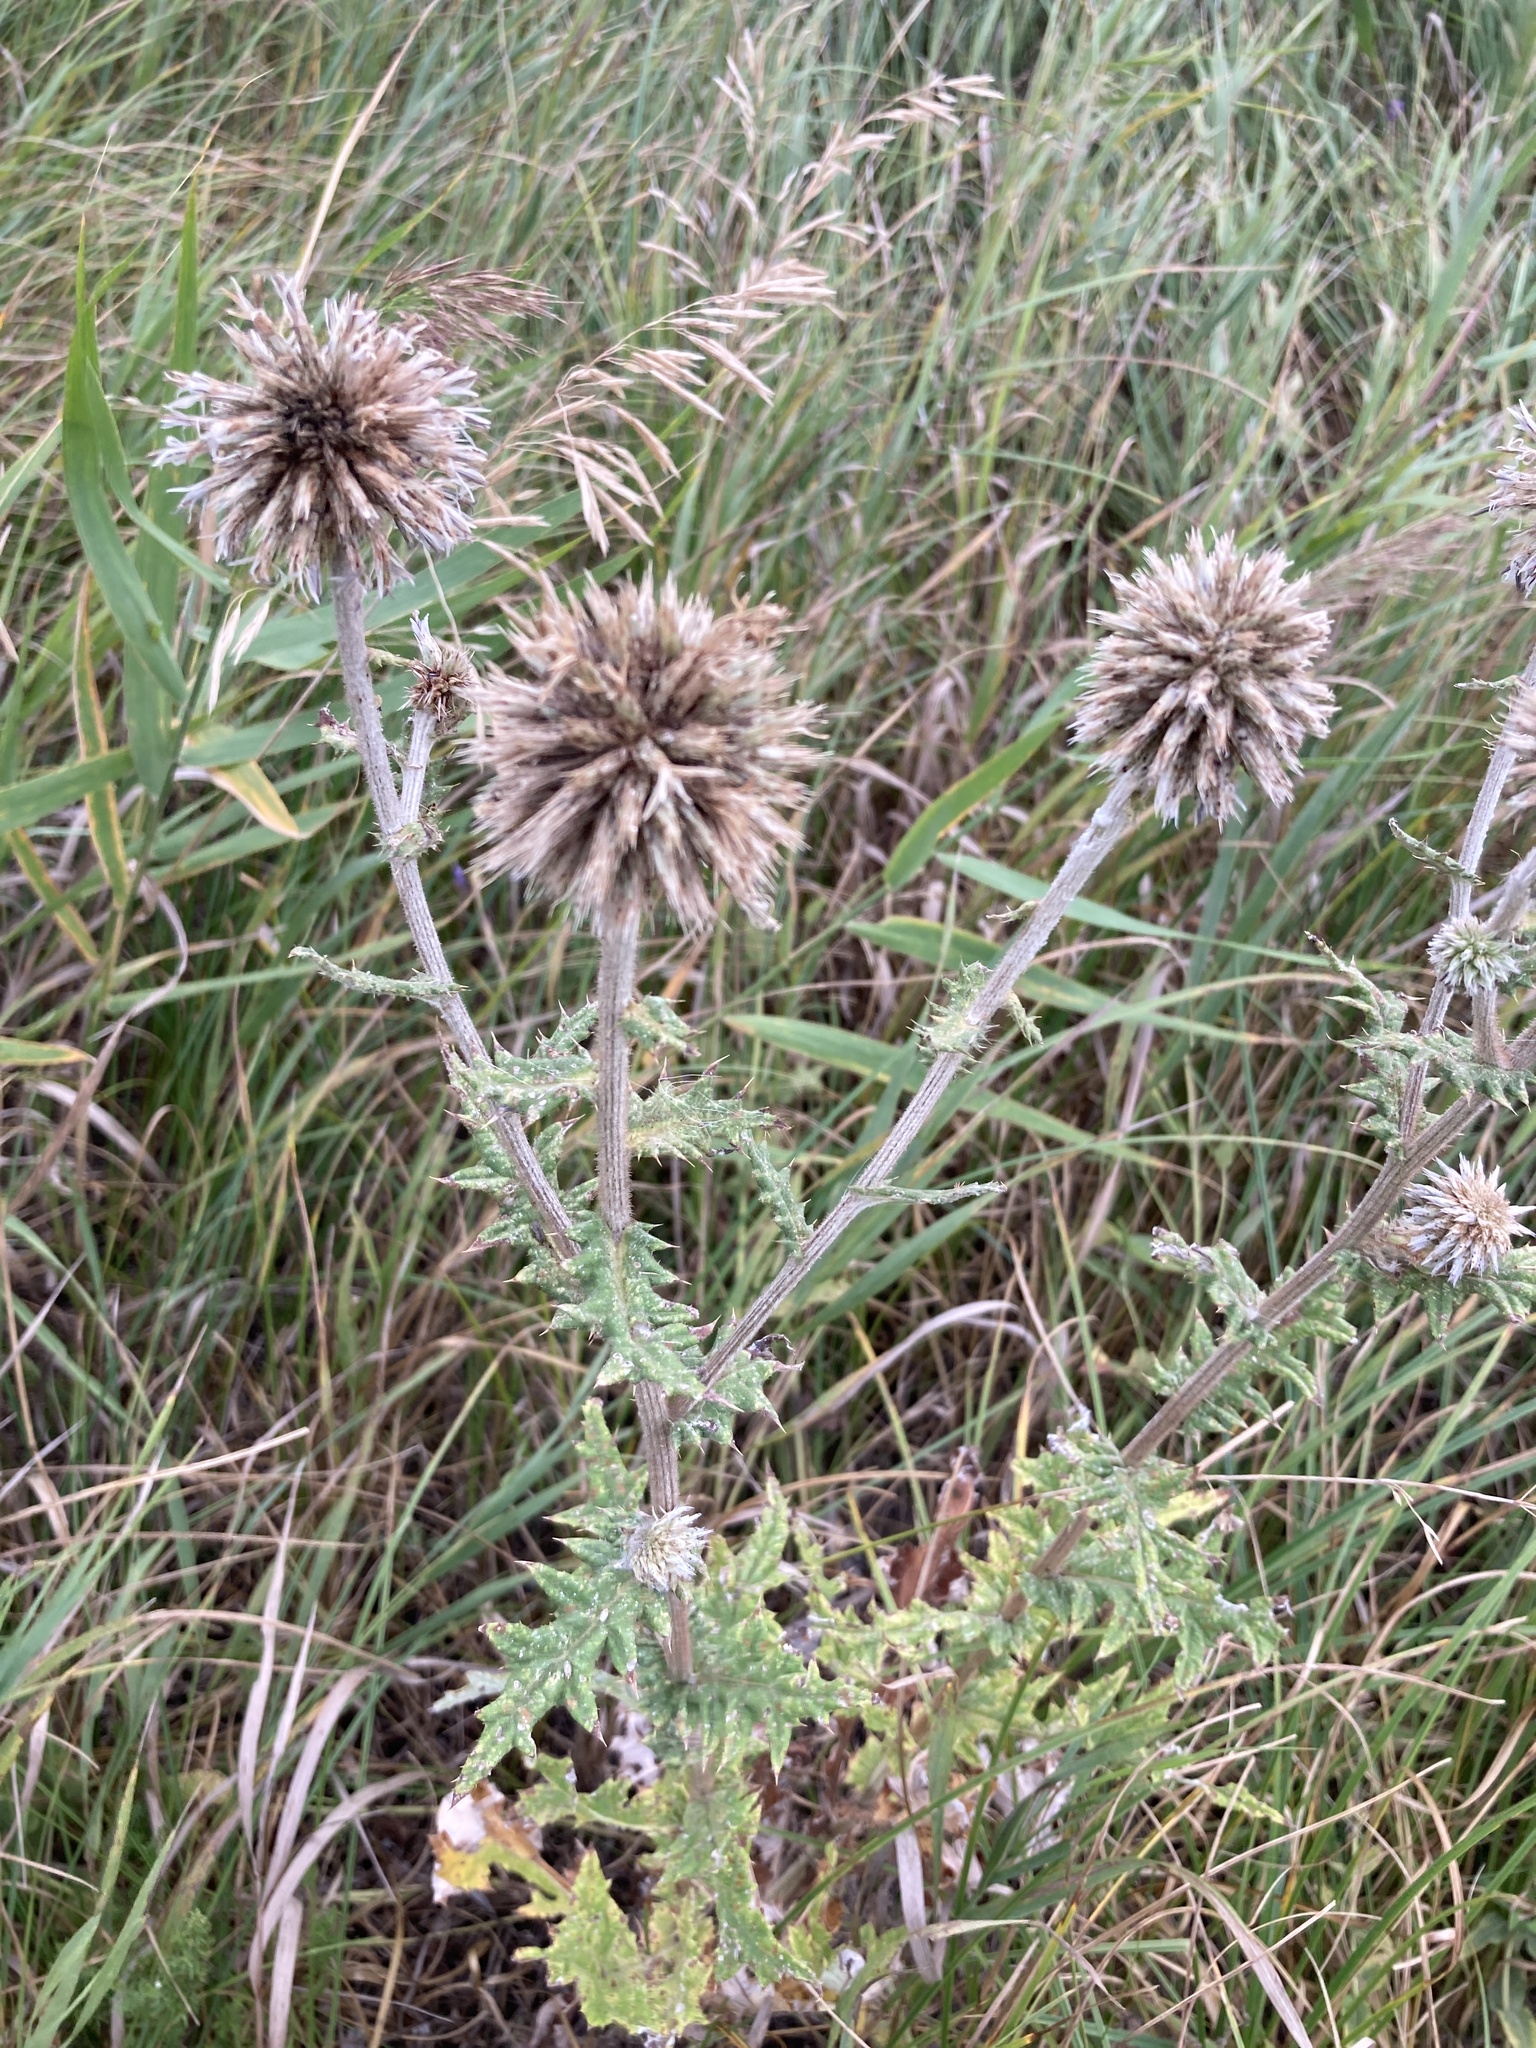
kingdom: Plantae
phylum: Tracheophyta
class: Magnoliopsida
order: Asterales
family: Asteraceae
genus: Echinops
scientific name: Echinops ritro
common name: Globe thistle
